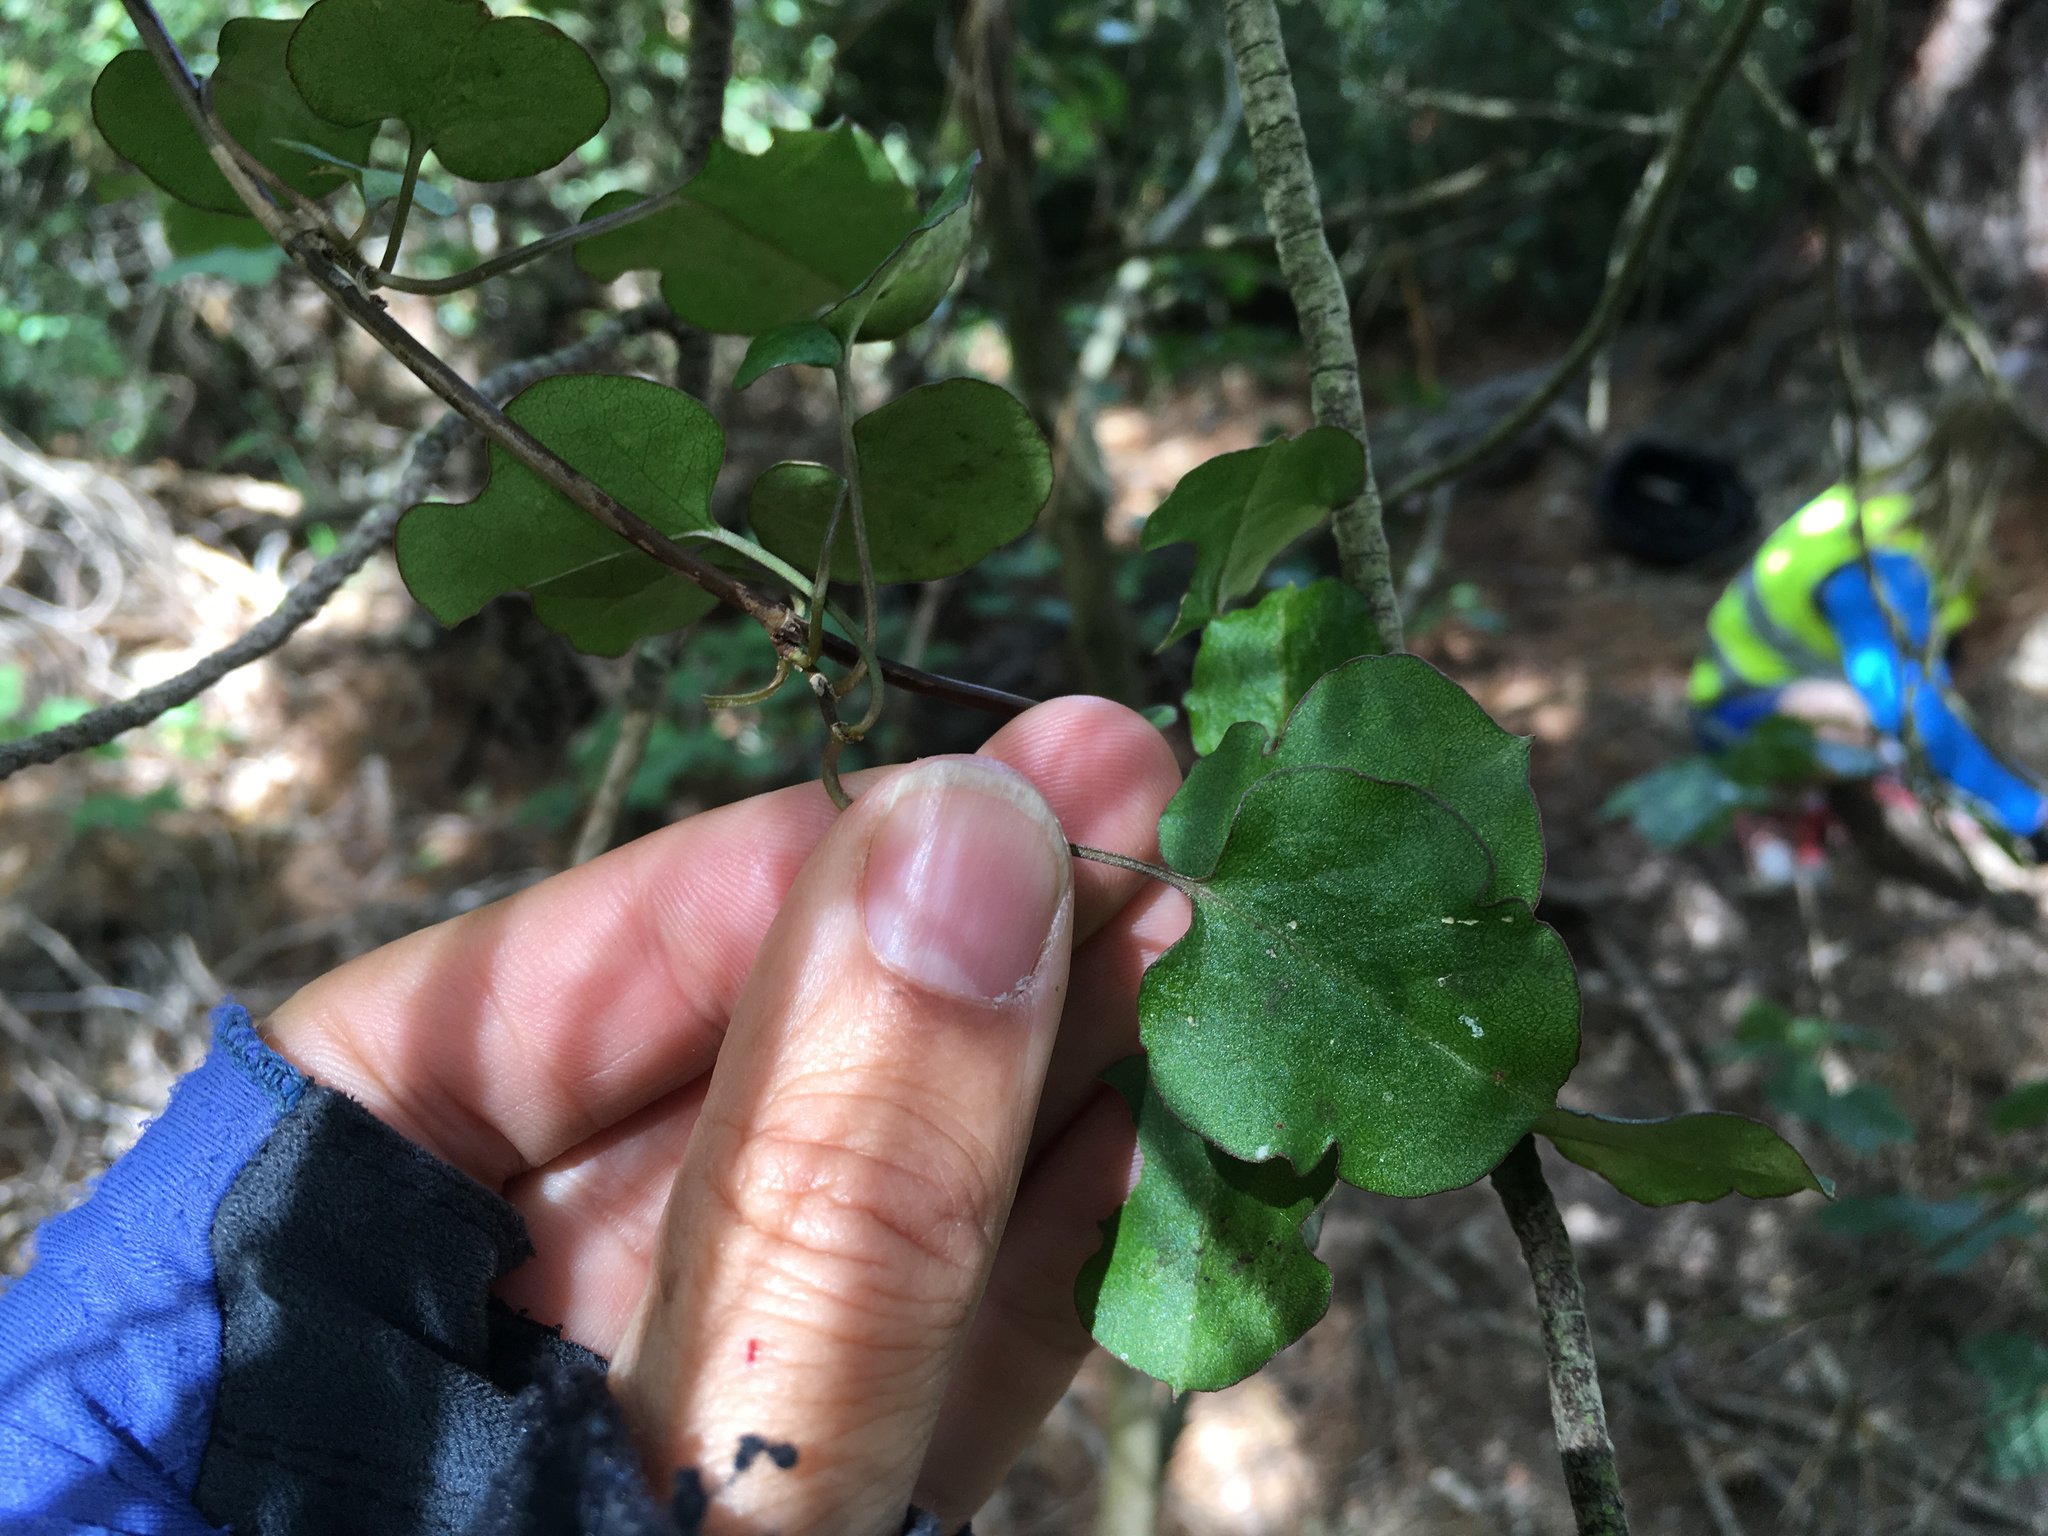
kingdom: Plantae
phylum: Tracheophyta
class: Magnoliopsida
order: Caryophyllales
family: Polygonaceae
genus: Muehlenbeckia
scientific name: Muehlenbeckia australis
